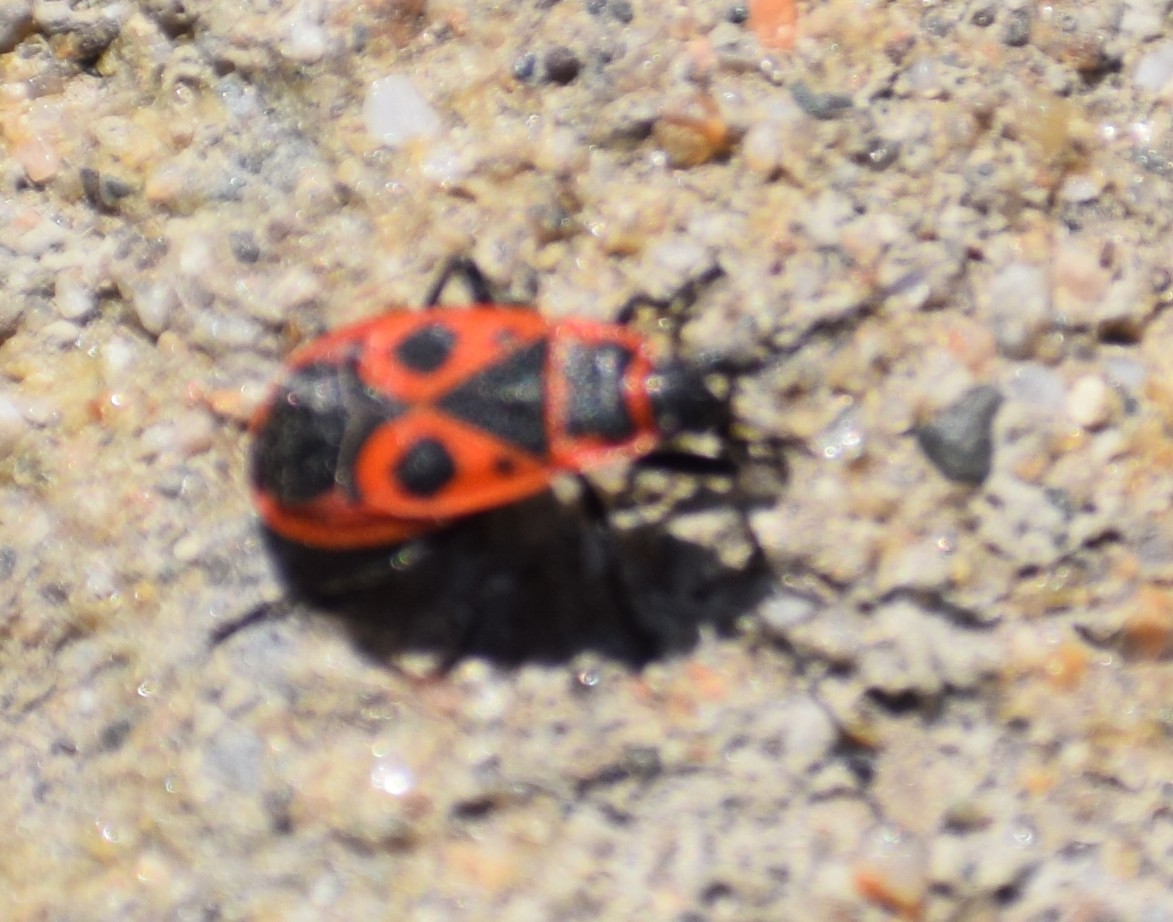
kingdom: Animalia
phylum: Arthropoda
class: Insecta
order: Hemiptera
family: Pyrrhocoridae
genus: Pyrrhocoris
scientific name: Pyrrhocoris apterus
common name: Firebug
